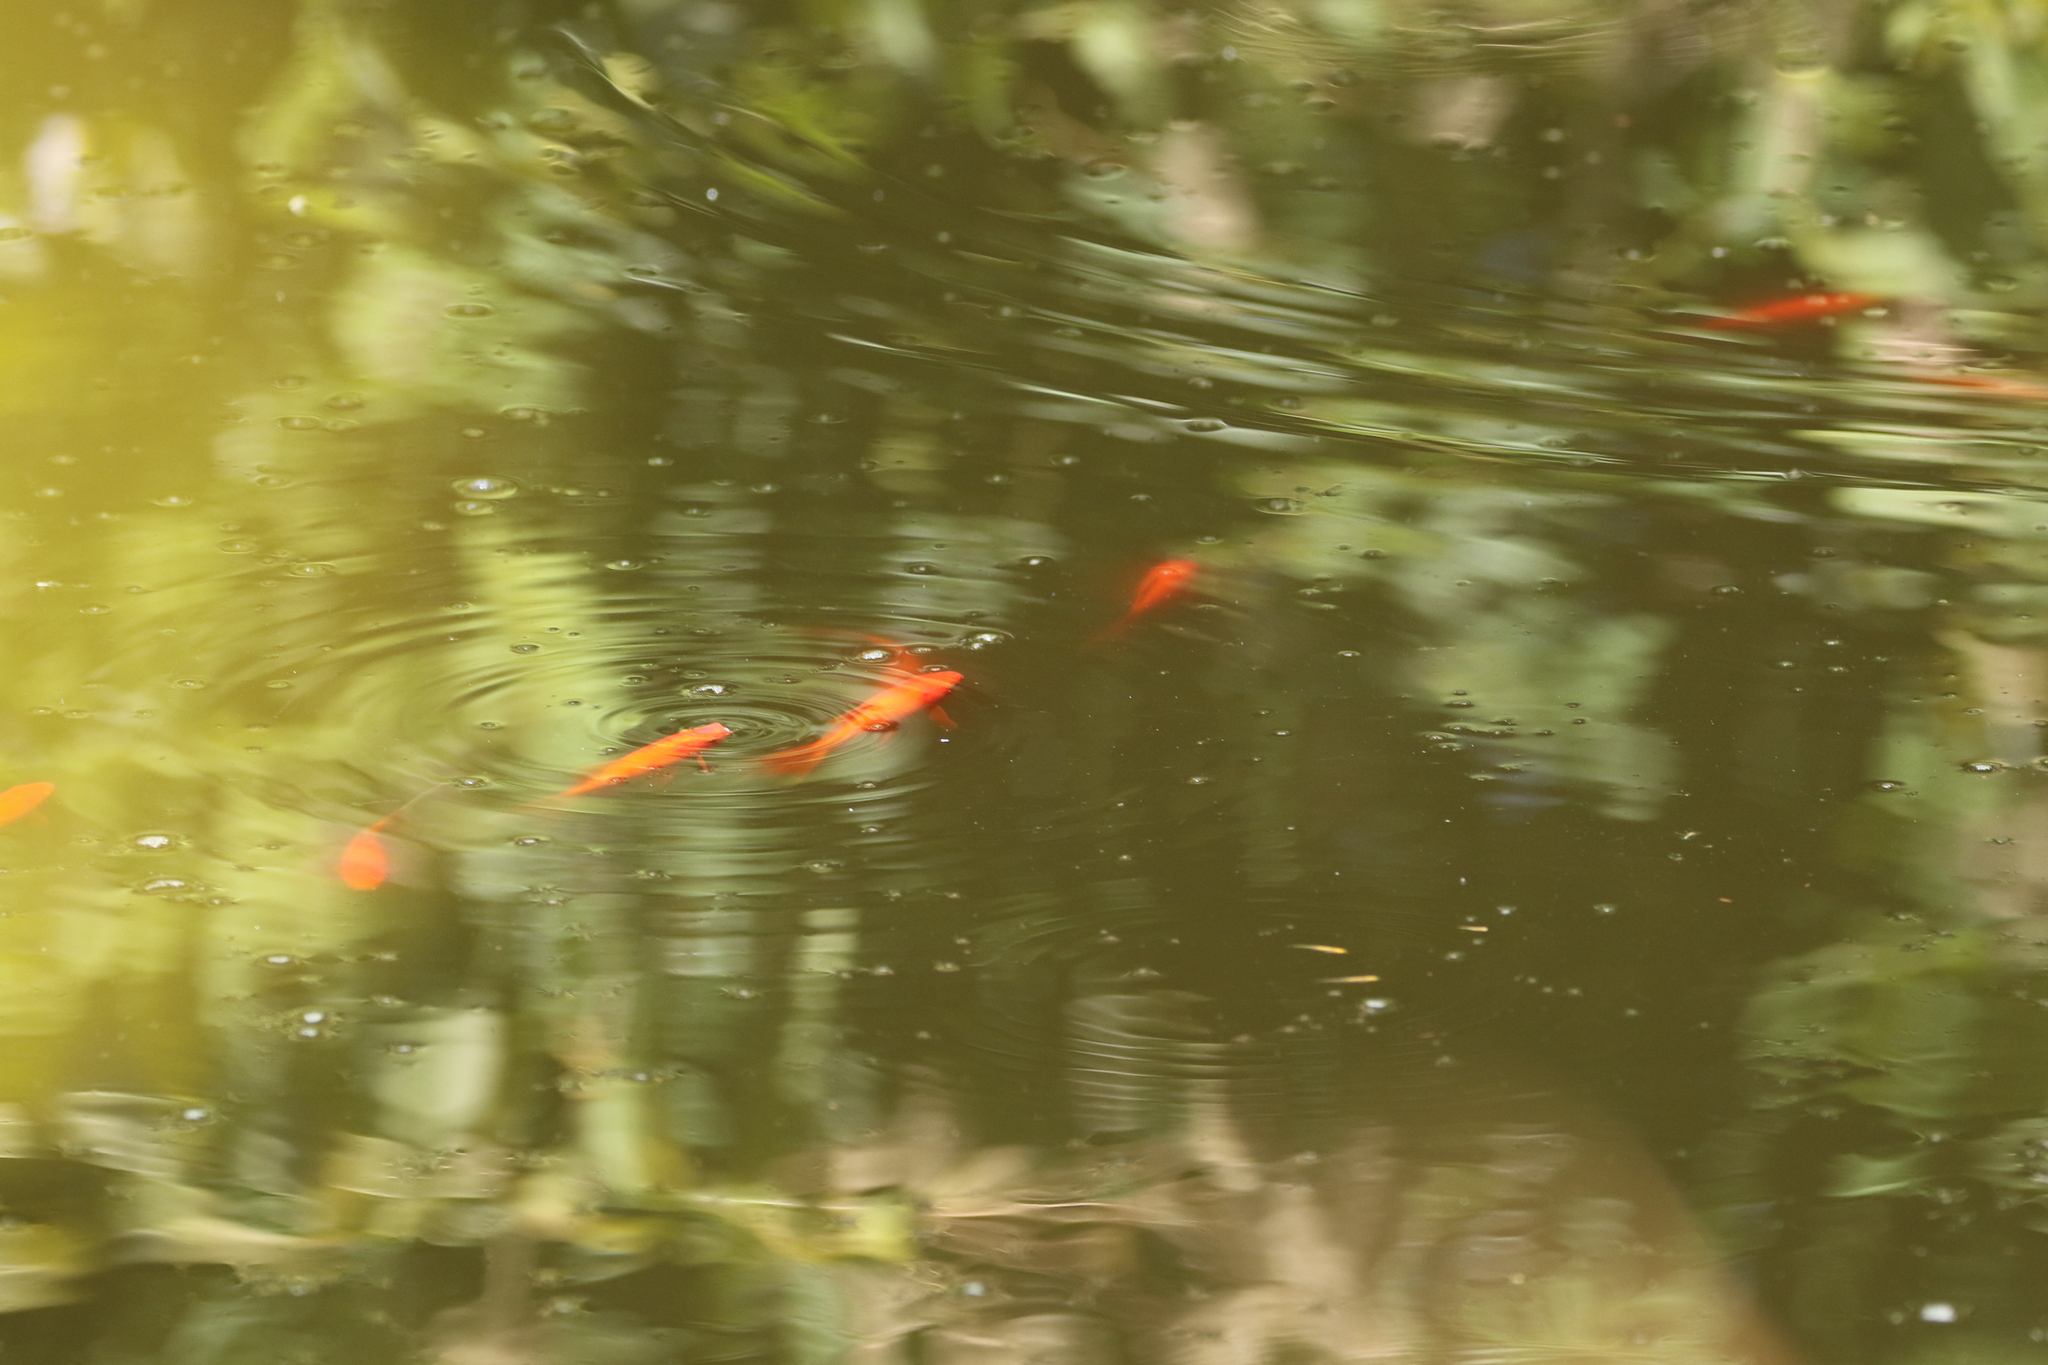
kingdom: Animalia
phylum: Chordata
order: Cypriniformes
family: Cyprinidae
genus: Carassius
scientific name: Carassius auratus
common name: Goldfish
